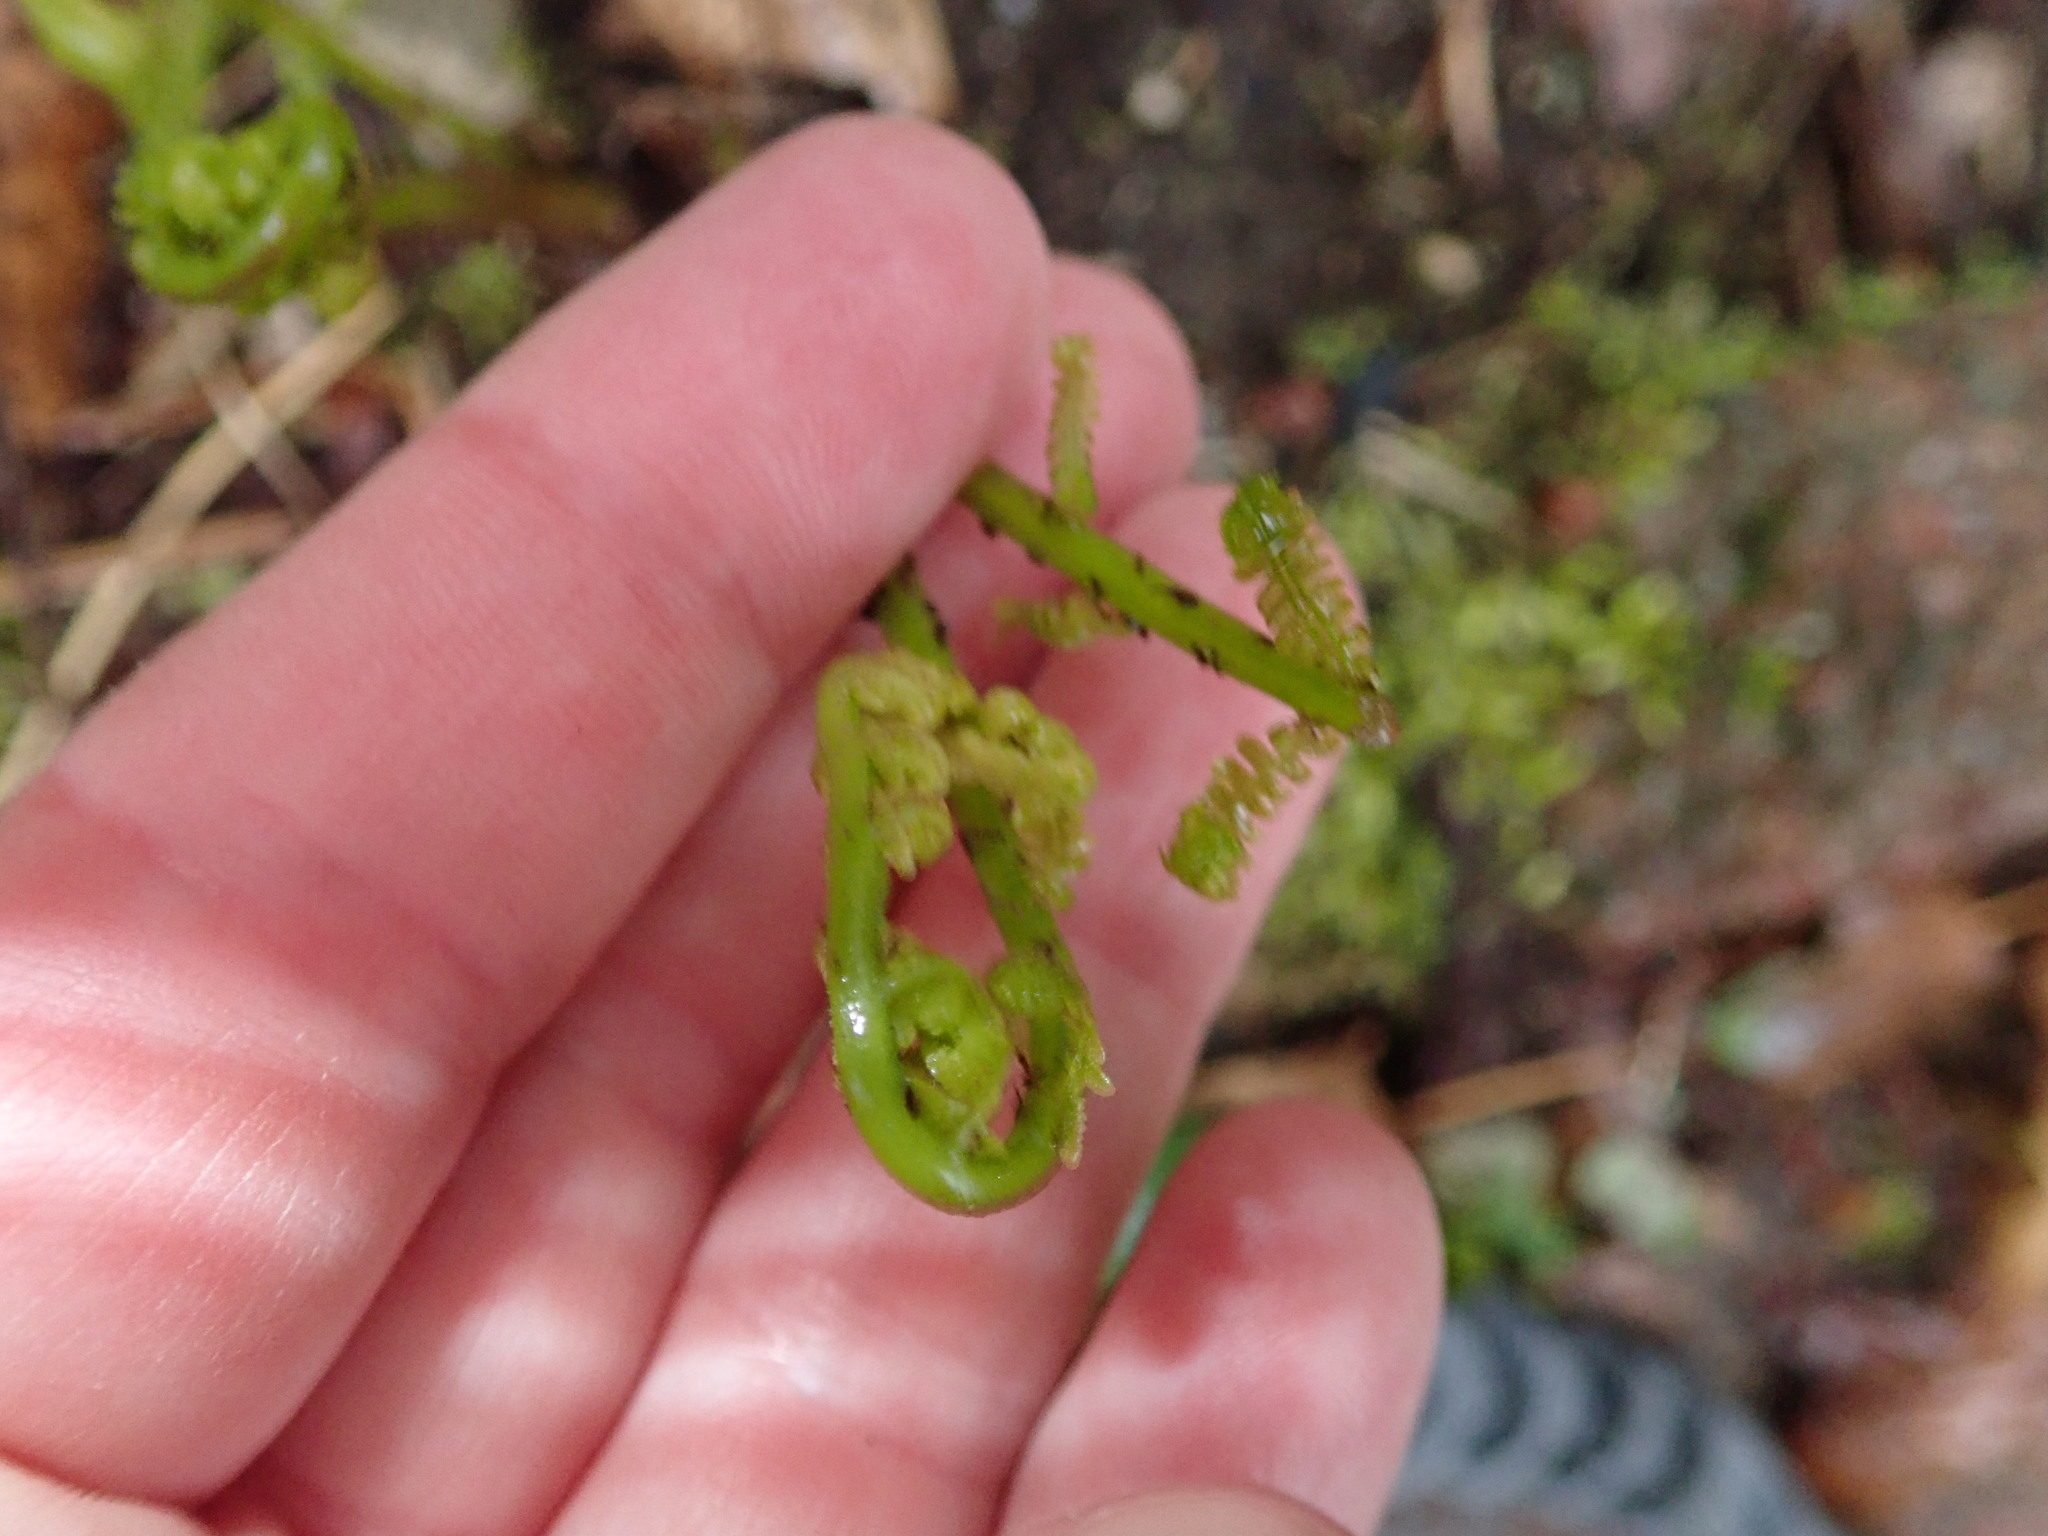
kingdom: Plantae
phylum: Tracheophyta
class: Polypodiopsida
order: Polypodiales
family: Athyriaceae
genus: Athyrium
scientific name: Athyrium angustum
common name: Northern lady fern
